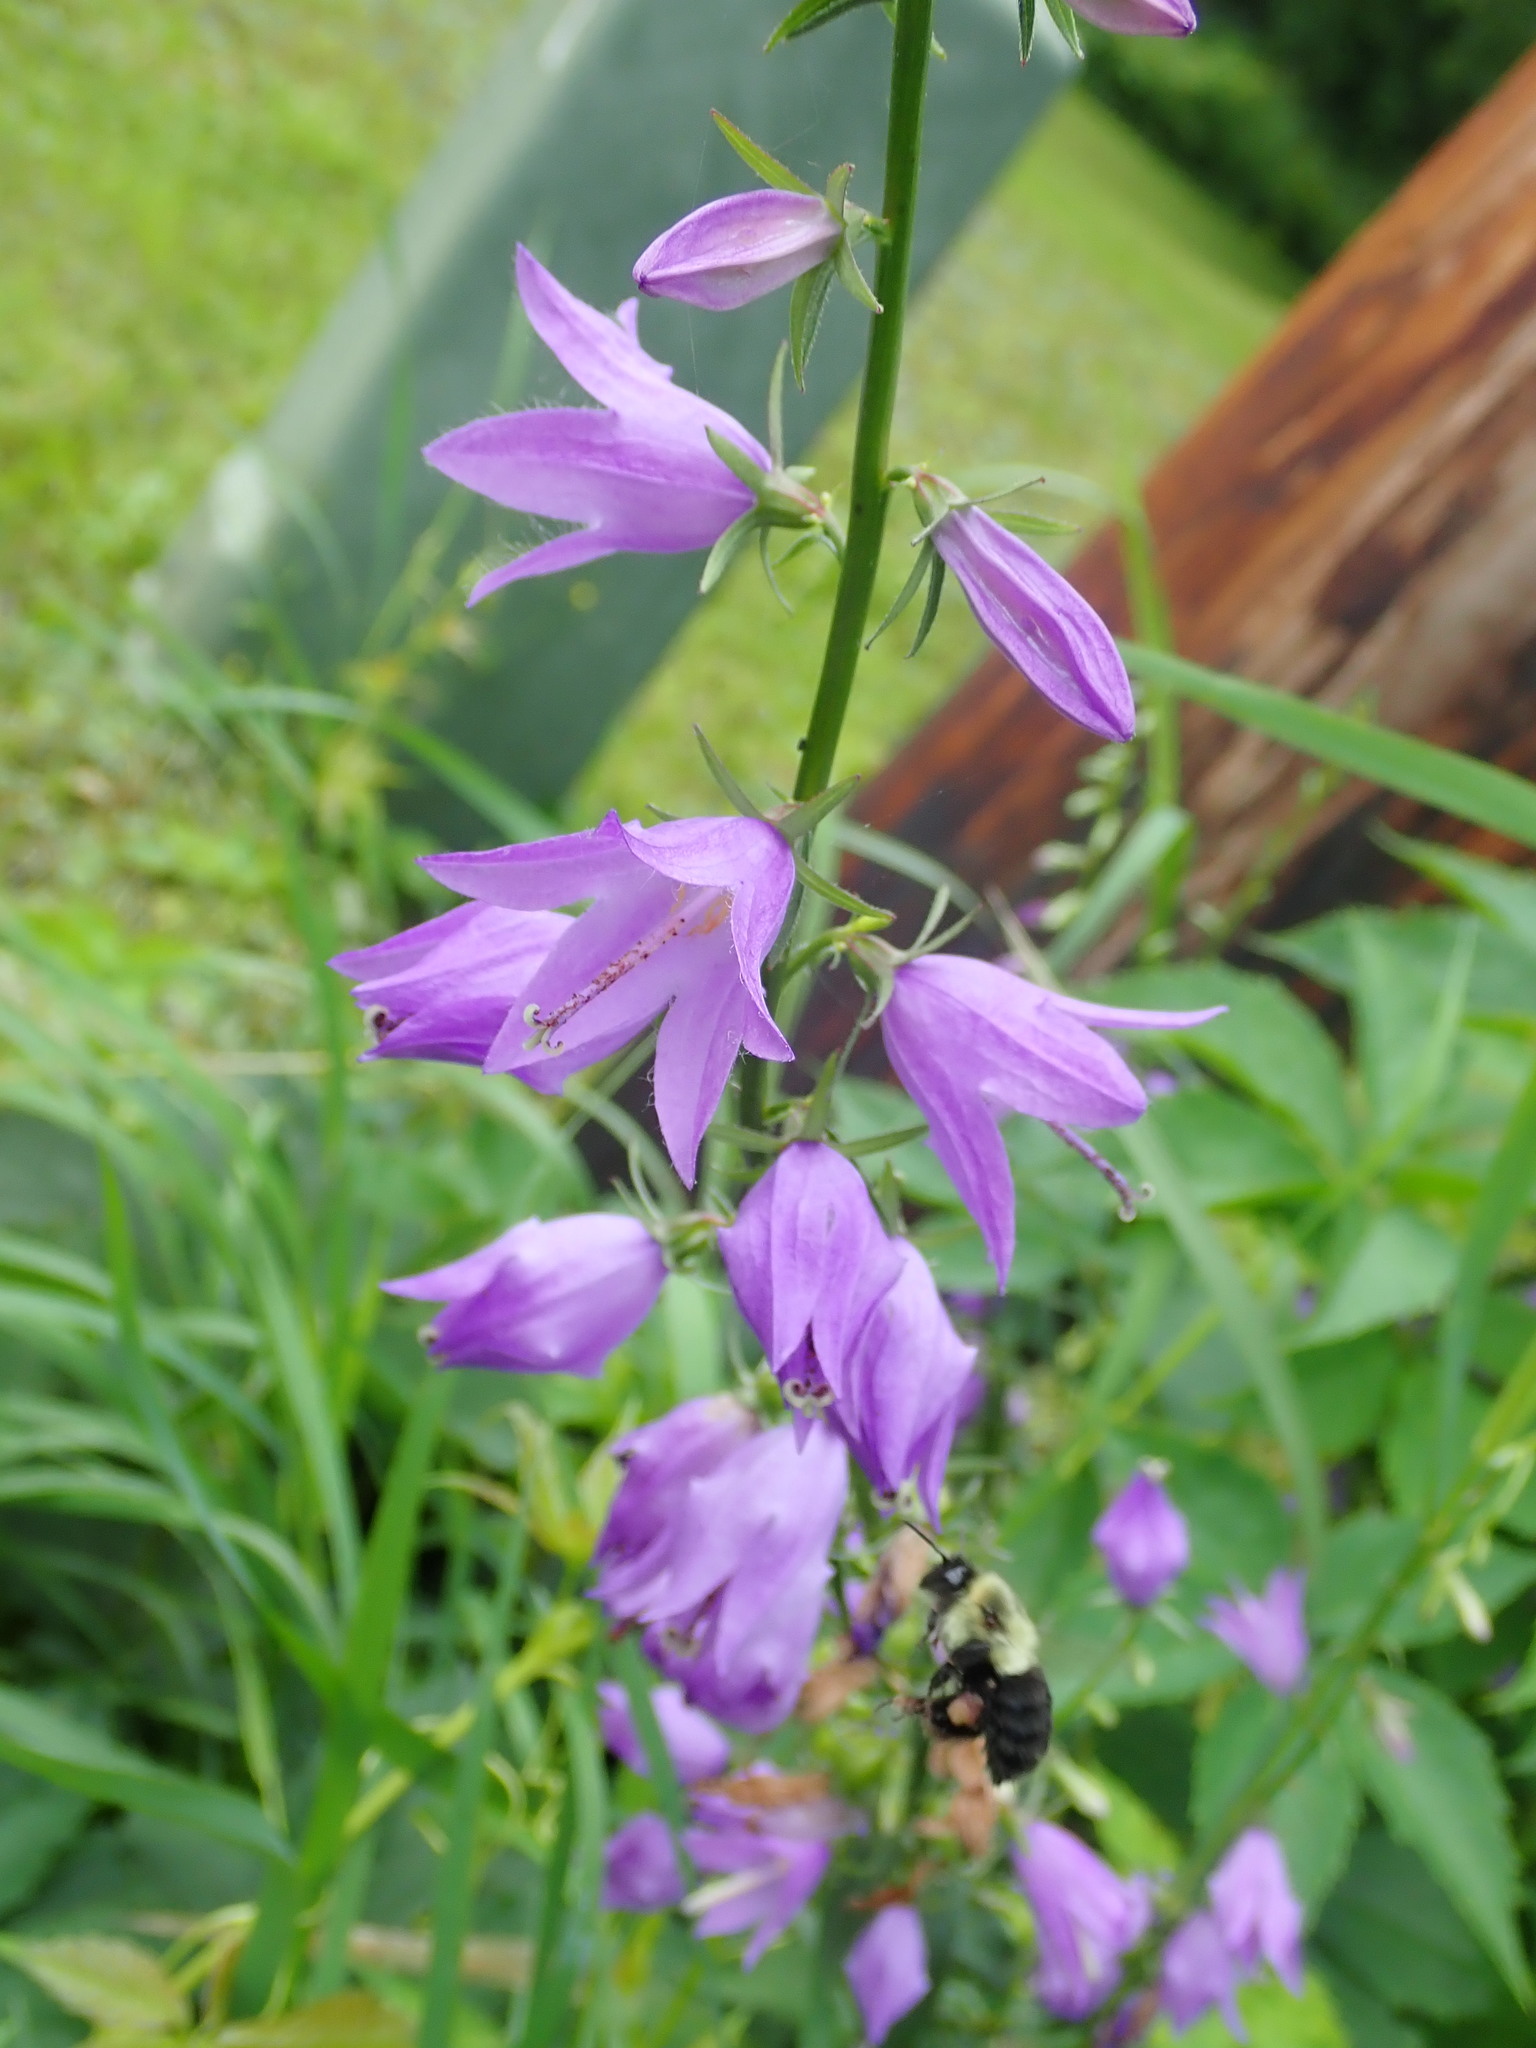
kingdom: Plantae
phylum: Tracheophyta
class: Magnoliopsida
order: Asterales
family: Campanulaceae
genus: Campanula
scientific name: Campanula rapunculoides
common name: Creeping bellflower
